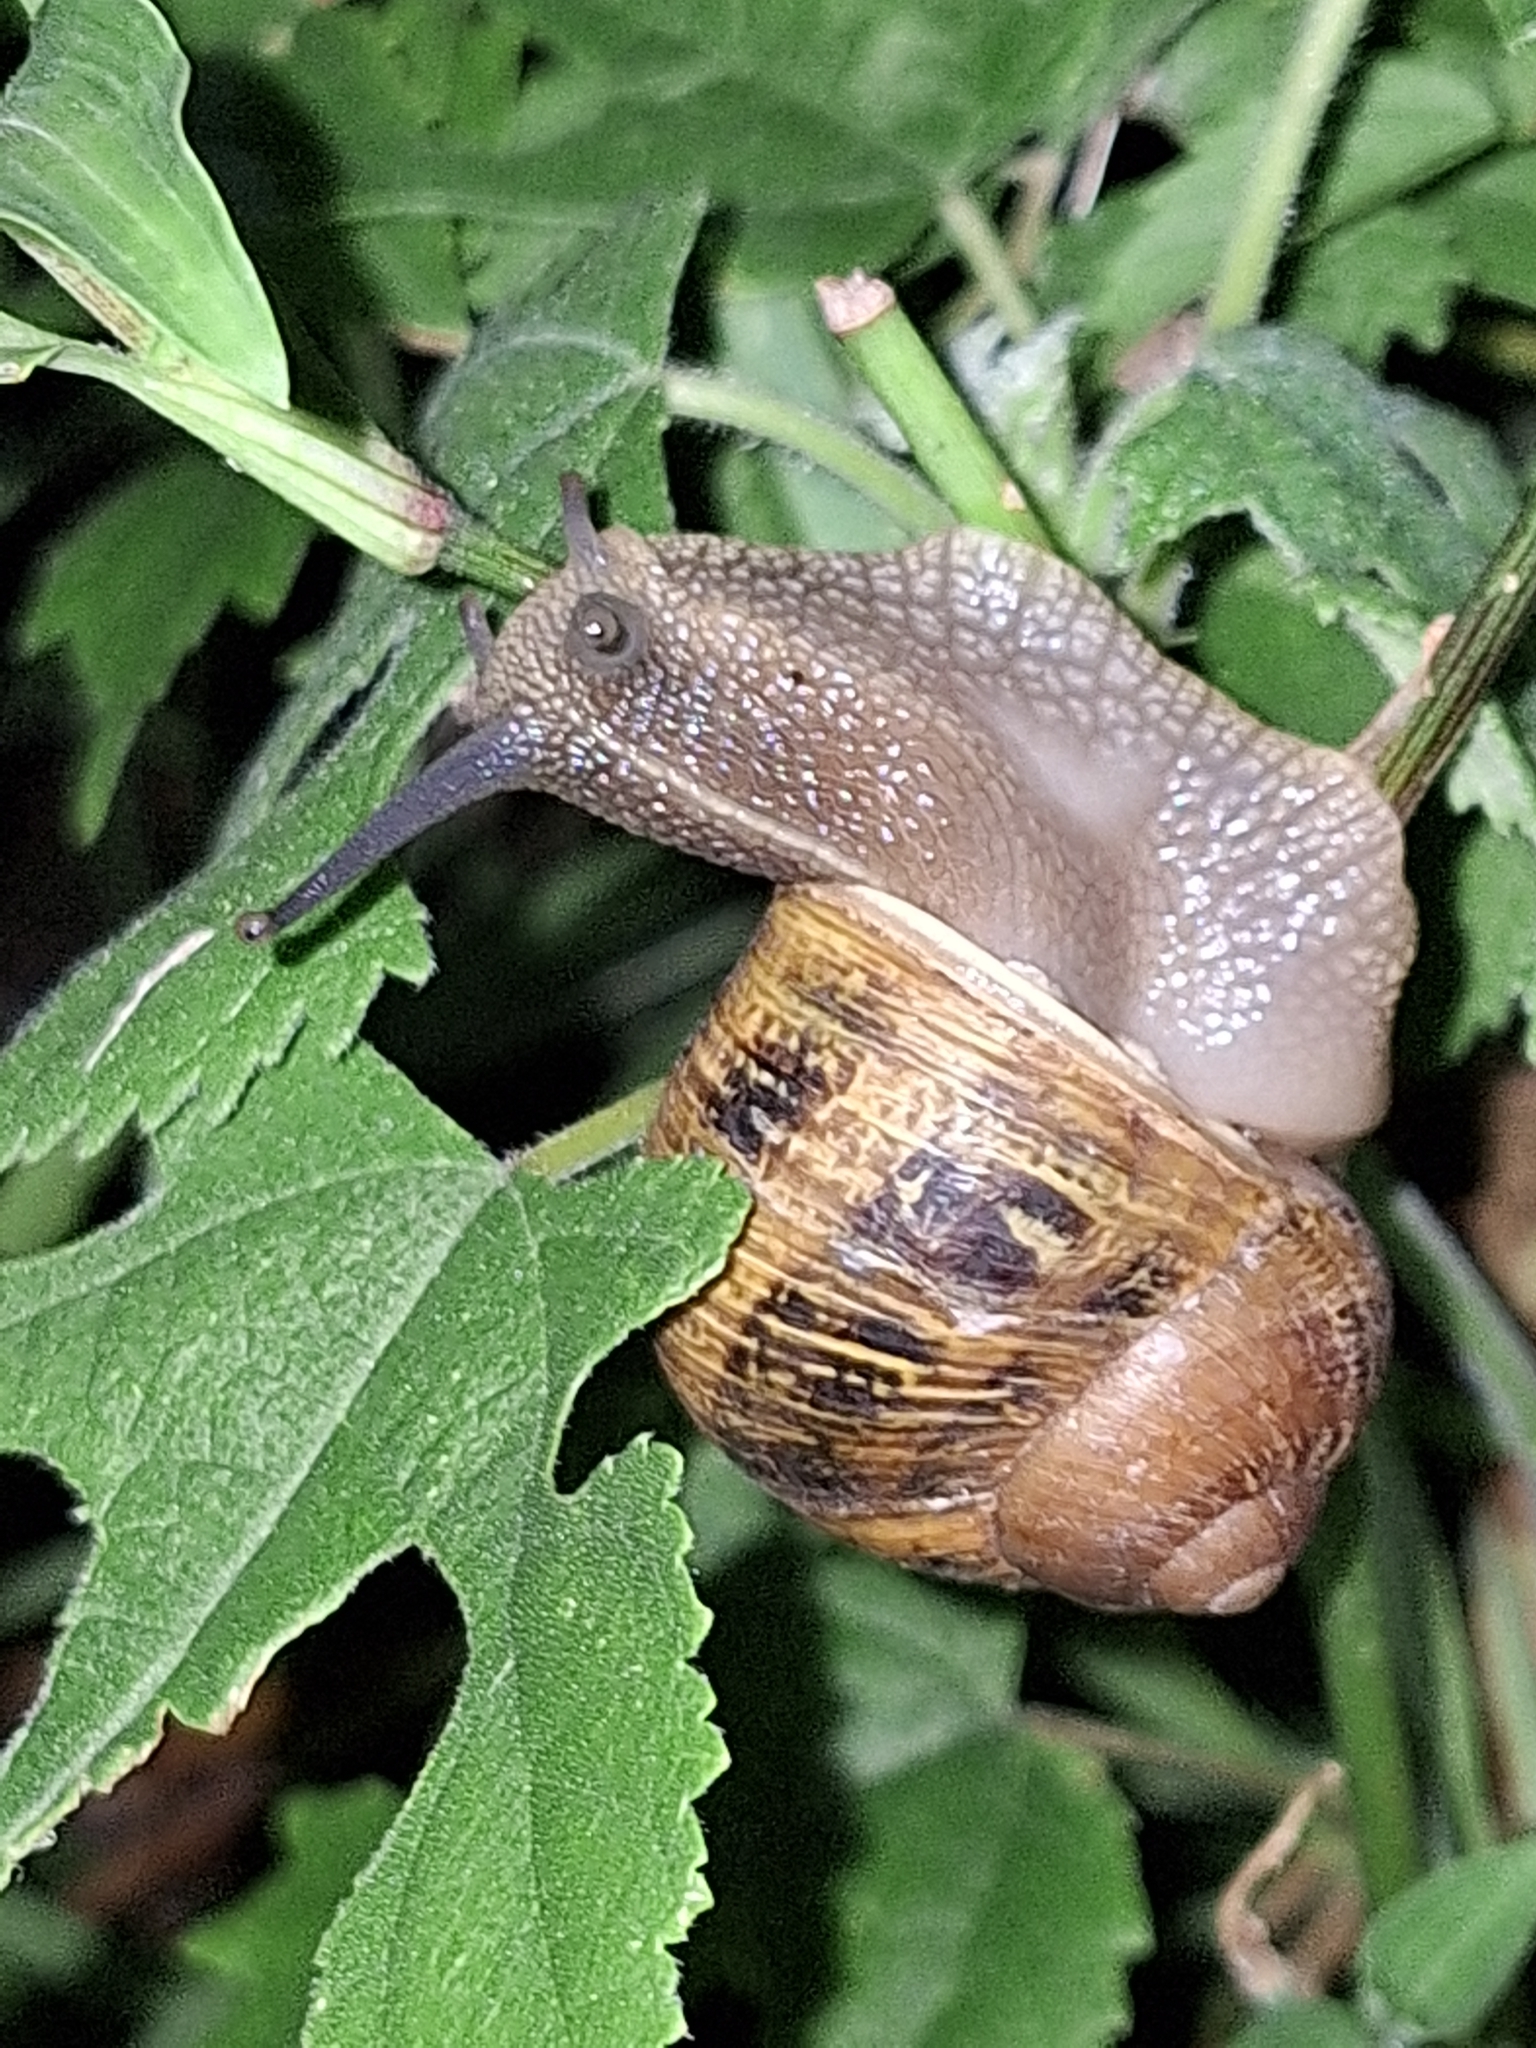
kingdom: Animalia
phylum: Mollusca
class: Gastropoda
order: Stylommatophora
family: Helicidae
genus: Cornu
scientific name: Cornu aspersum
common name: Brown garden snail
